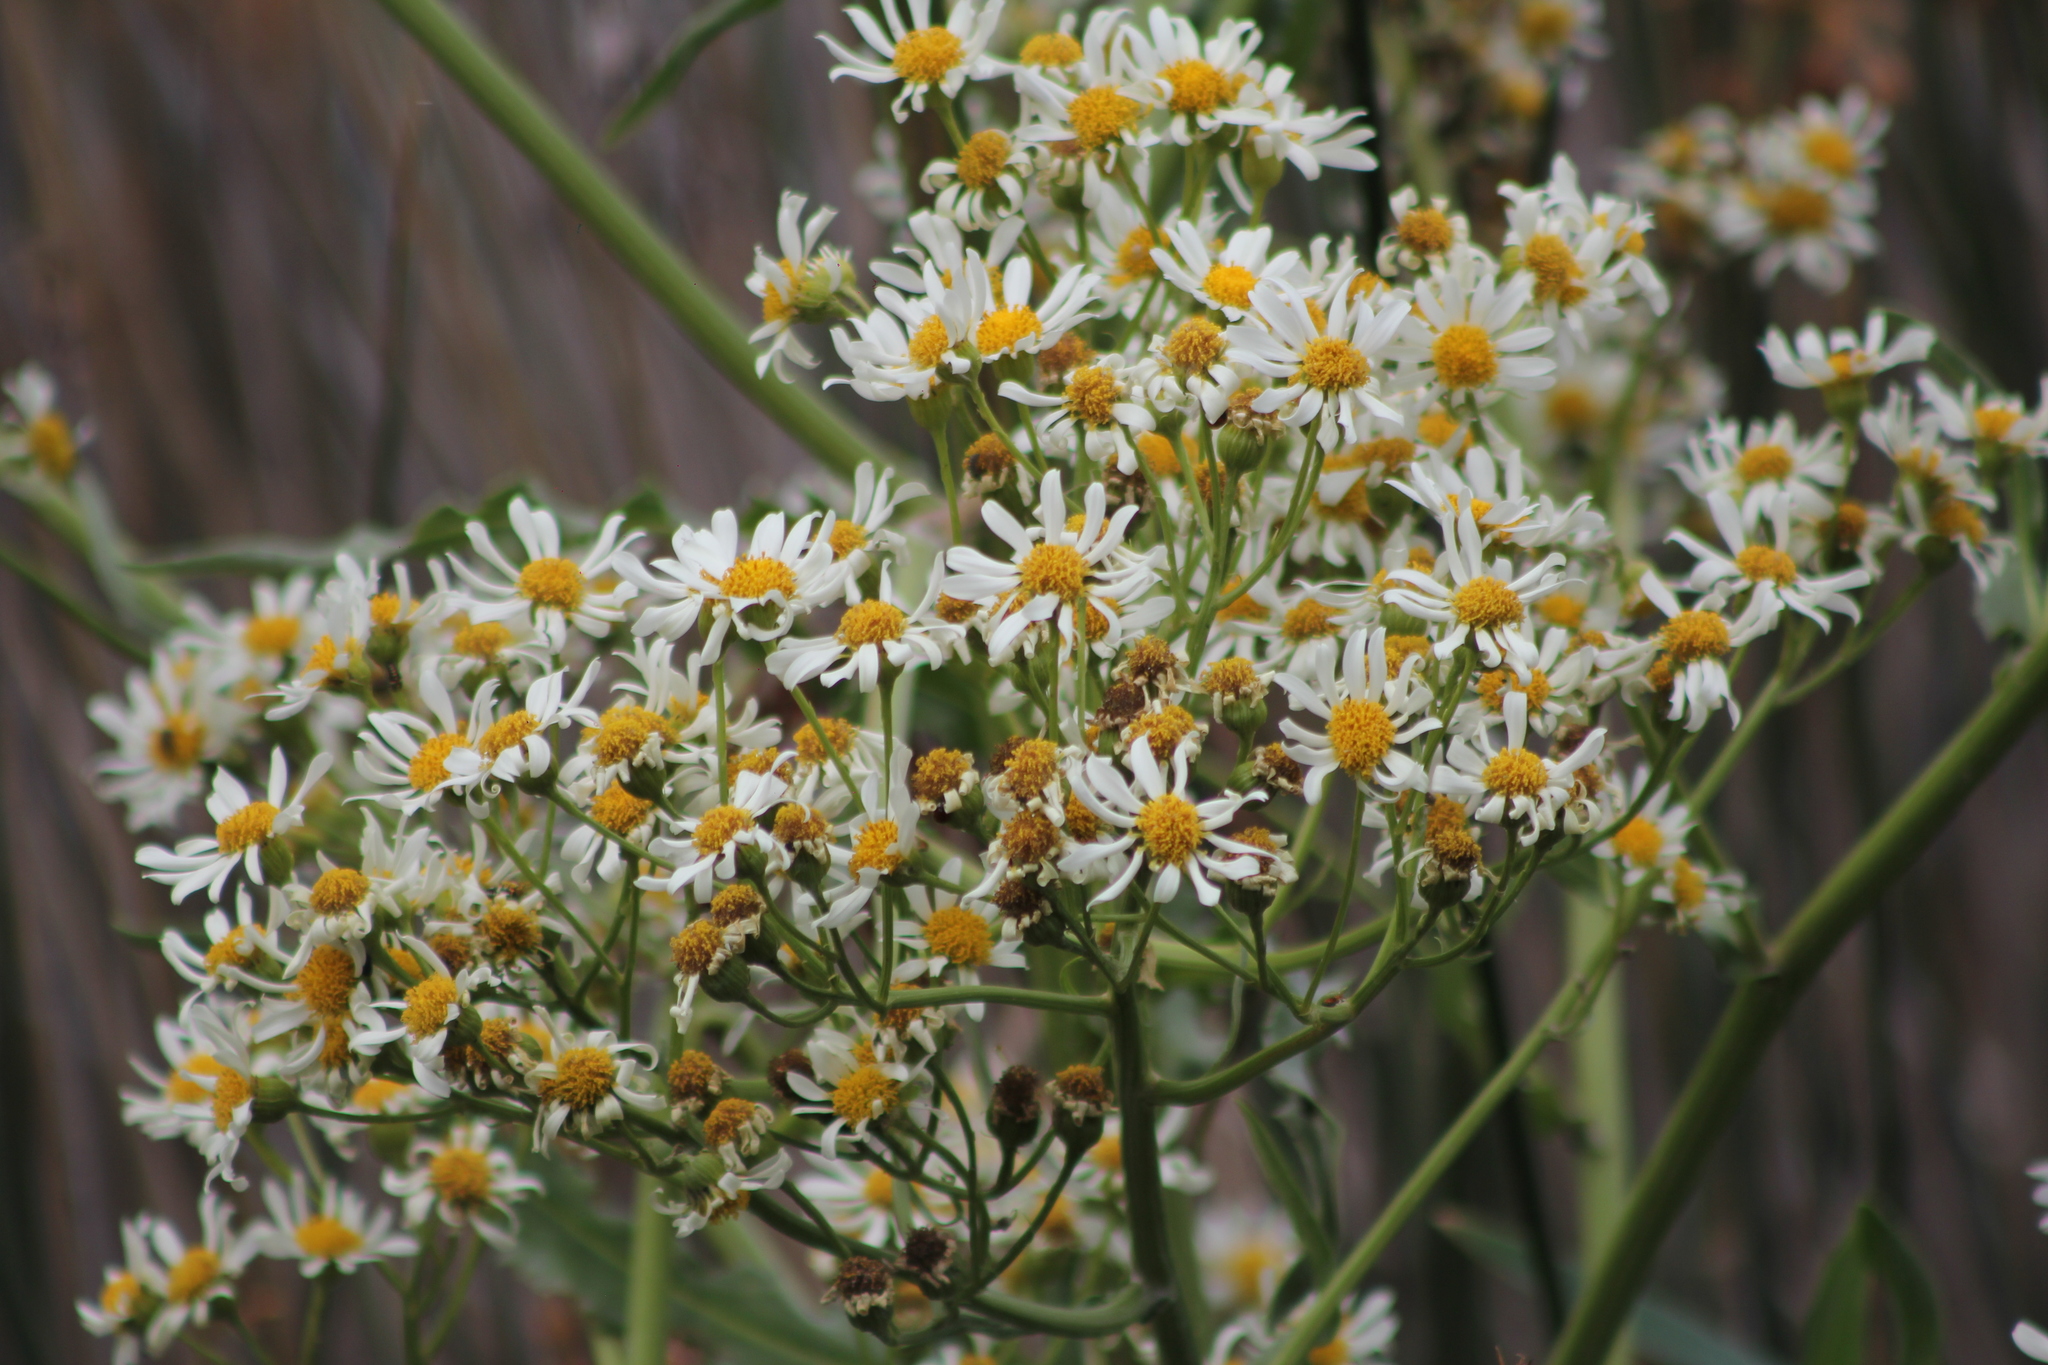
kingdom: Plantae
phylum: Tracheophyta
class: Magnoliopsida
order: Asterales
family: Asteraceae
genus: Senecio
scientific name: Senecio bonariensis
